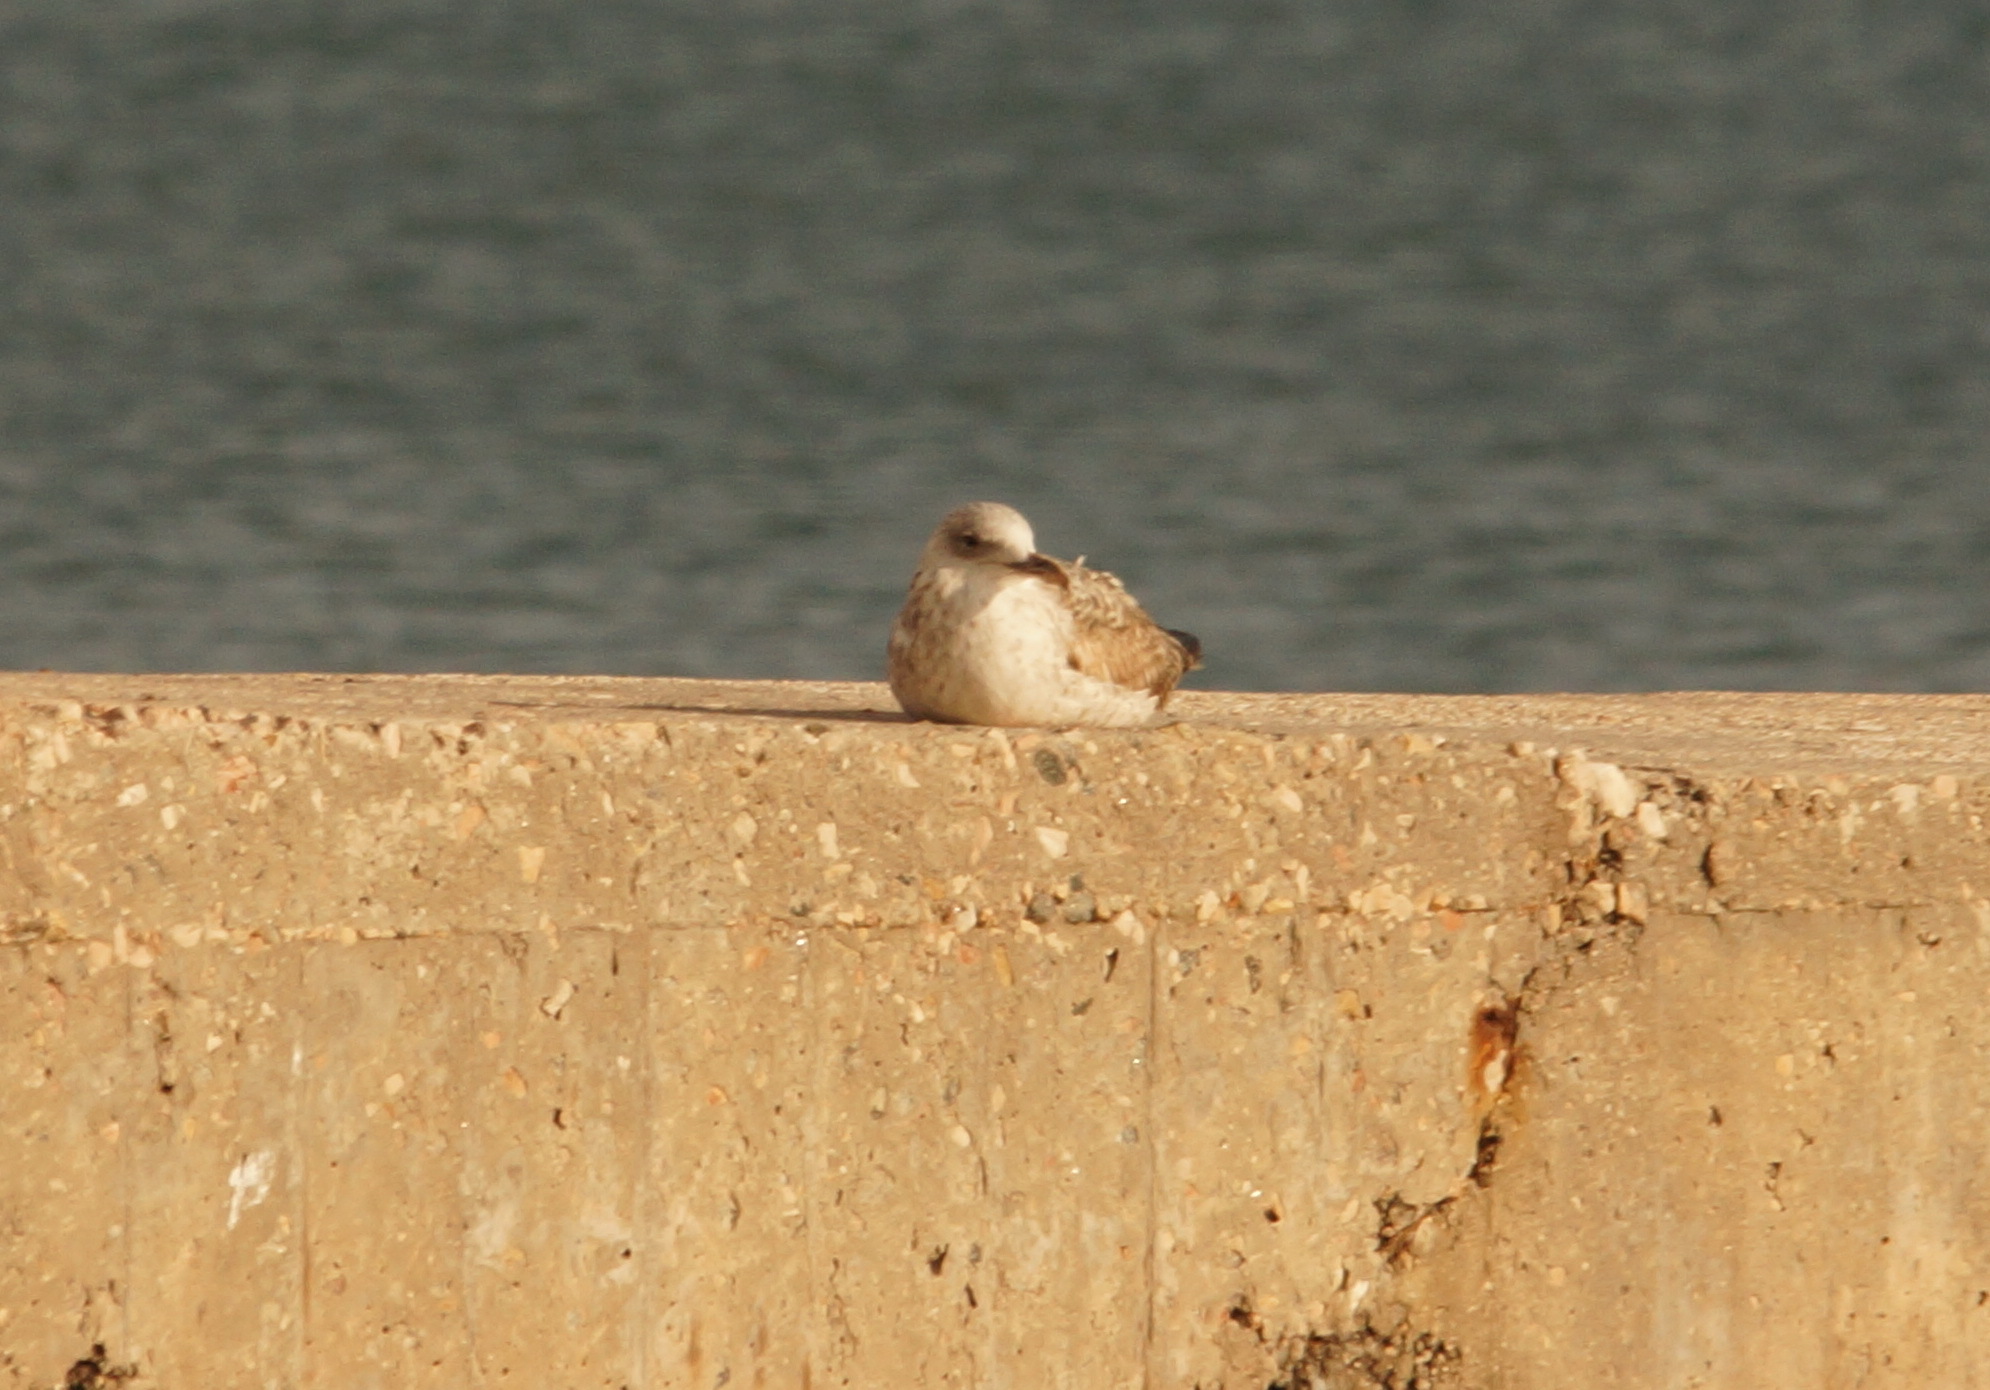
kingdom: Animalia
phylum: Chordata
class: Aves
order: Charadriiformes
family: Laridae
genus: Larus
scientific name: Larus michahellis
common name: Yellow-legged gull
